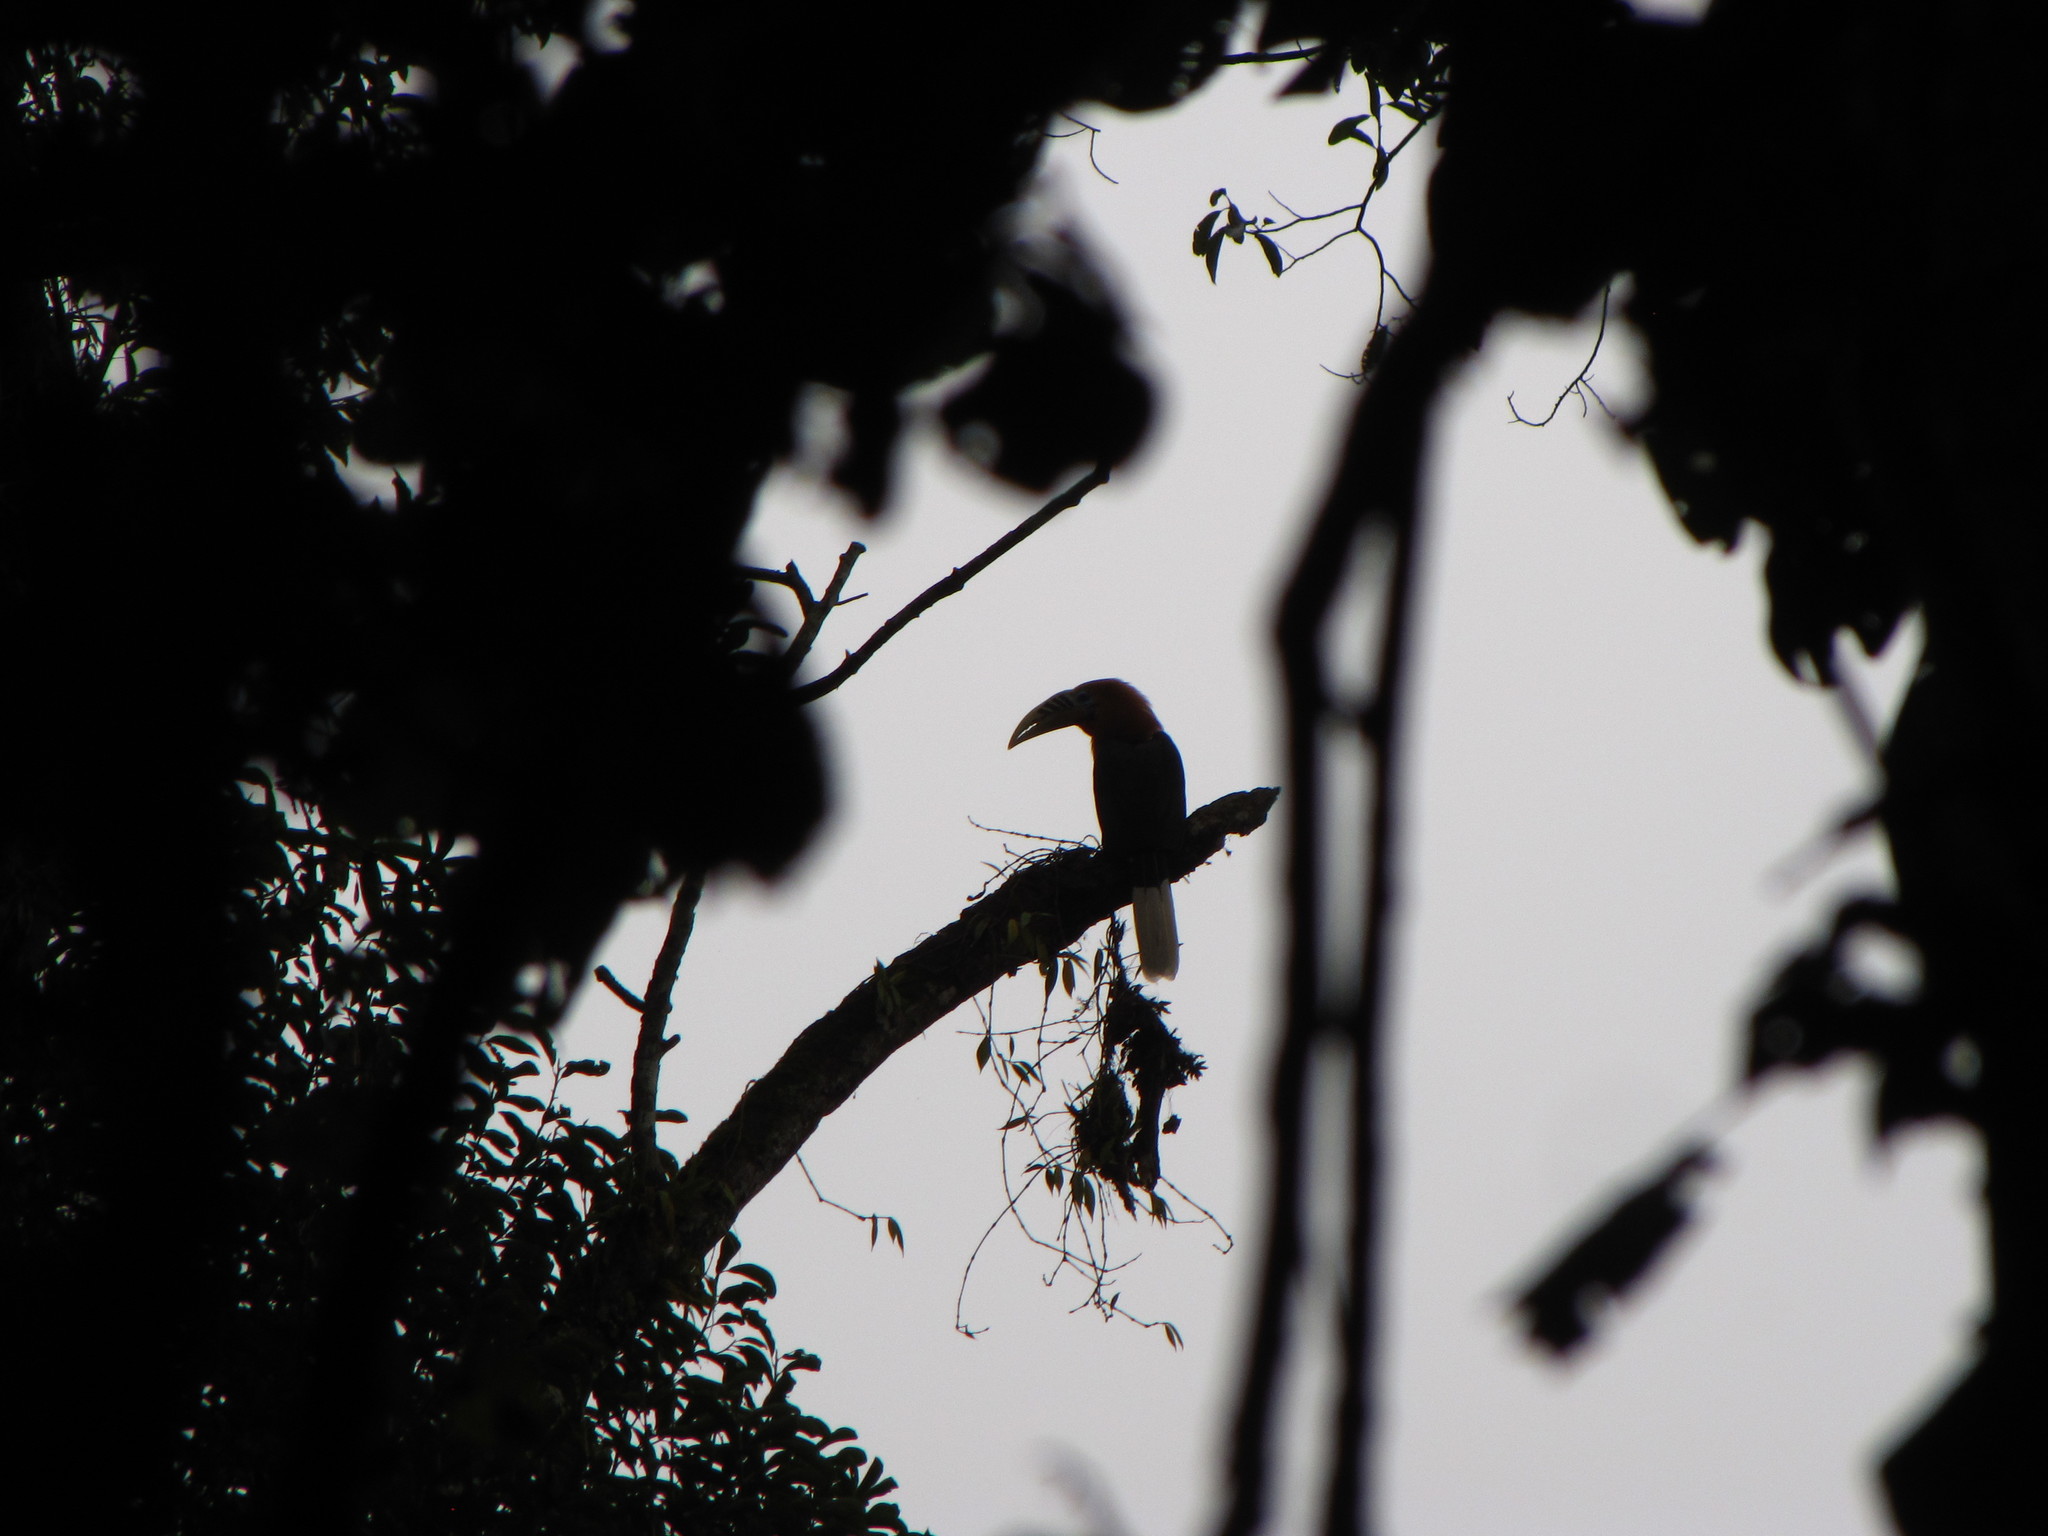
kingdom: Animalia
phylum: Chordata
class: Aves
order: Bucerotiformes
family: Bucerotidae
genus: Aceros
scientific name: Aceros nipalensis
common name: Rufous-necked hornbill
